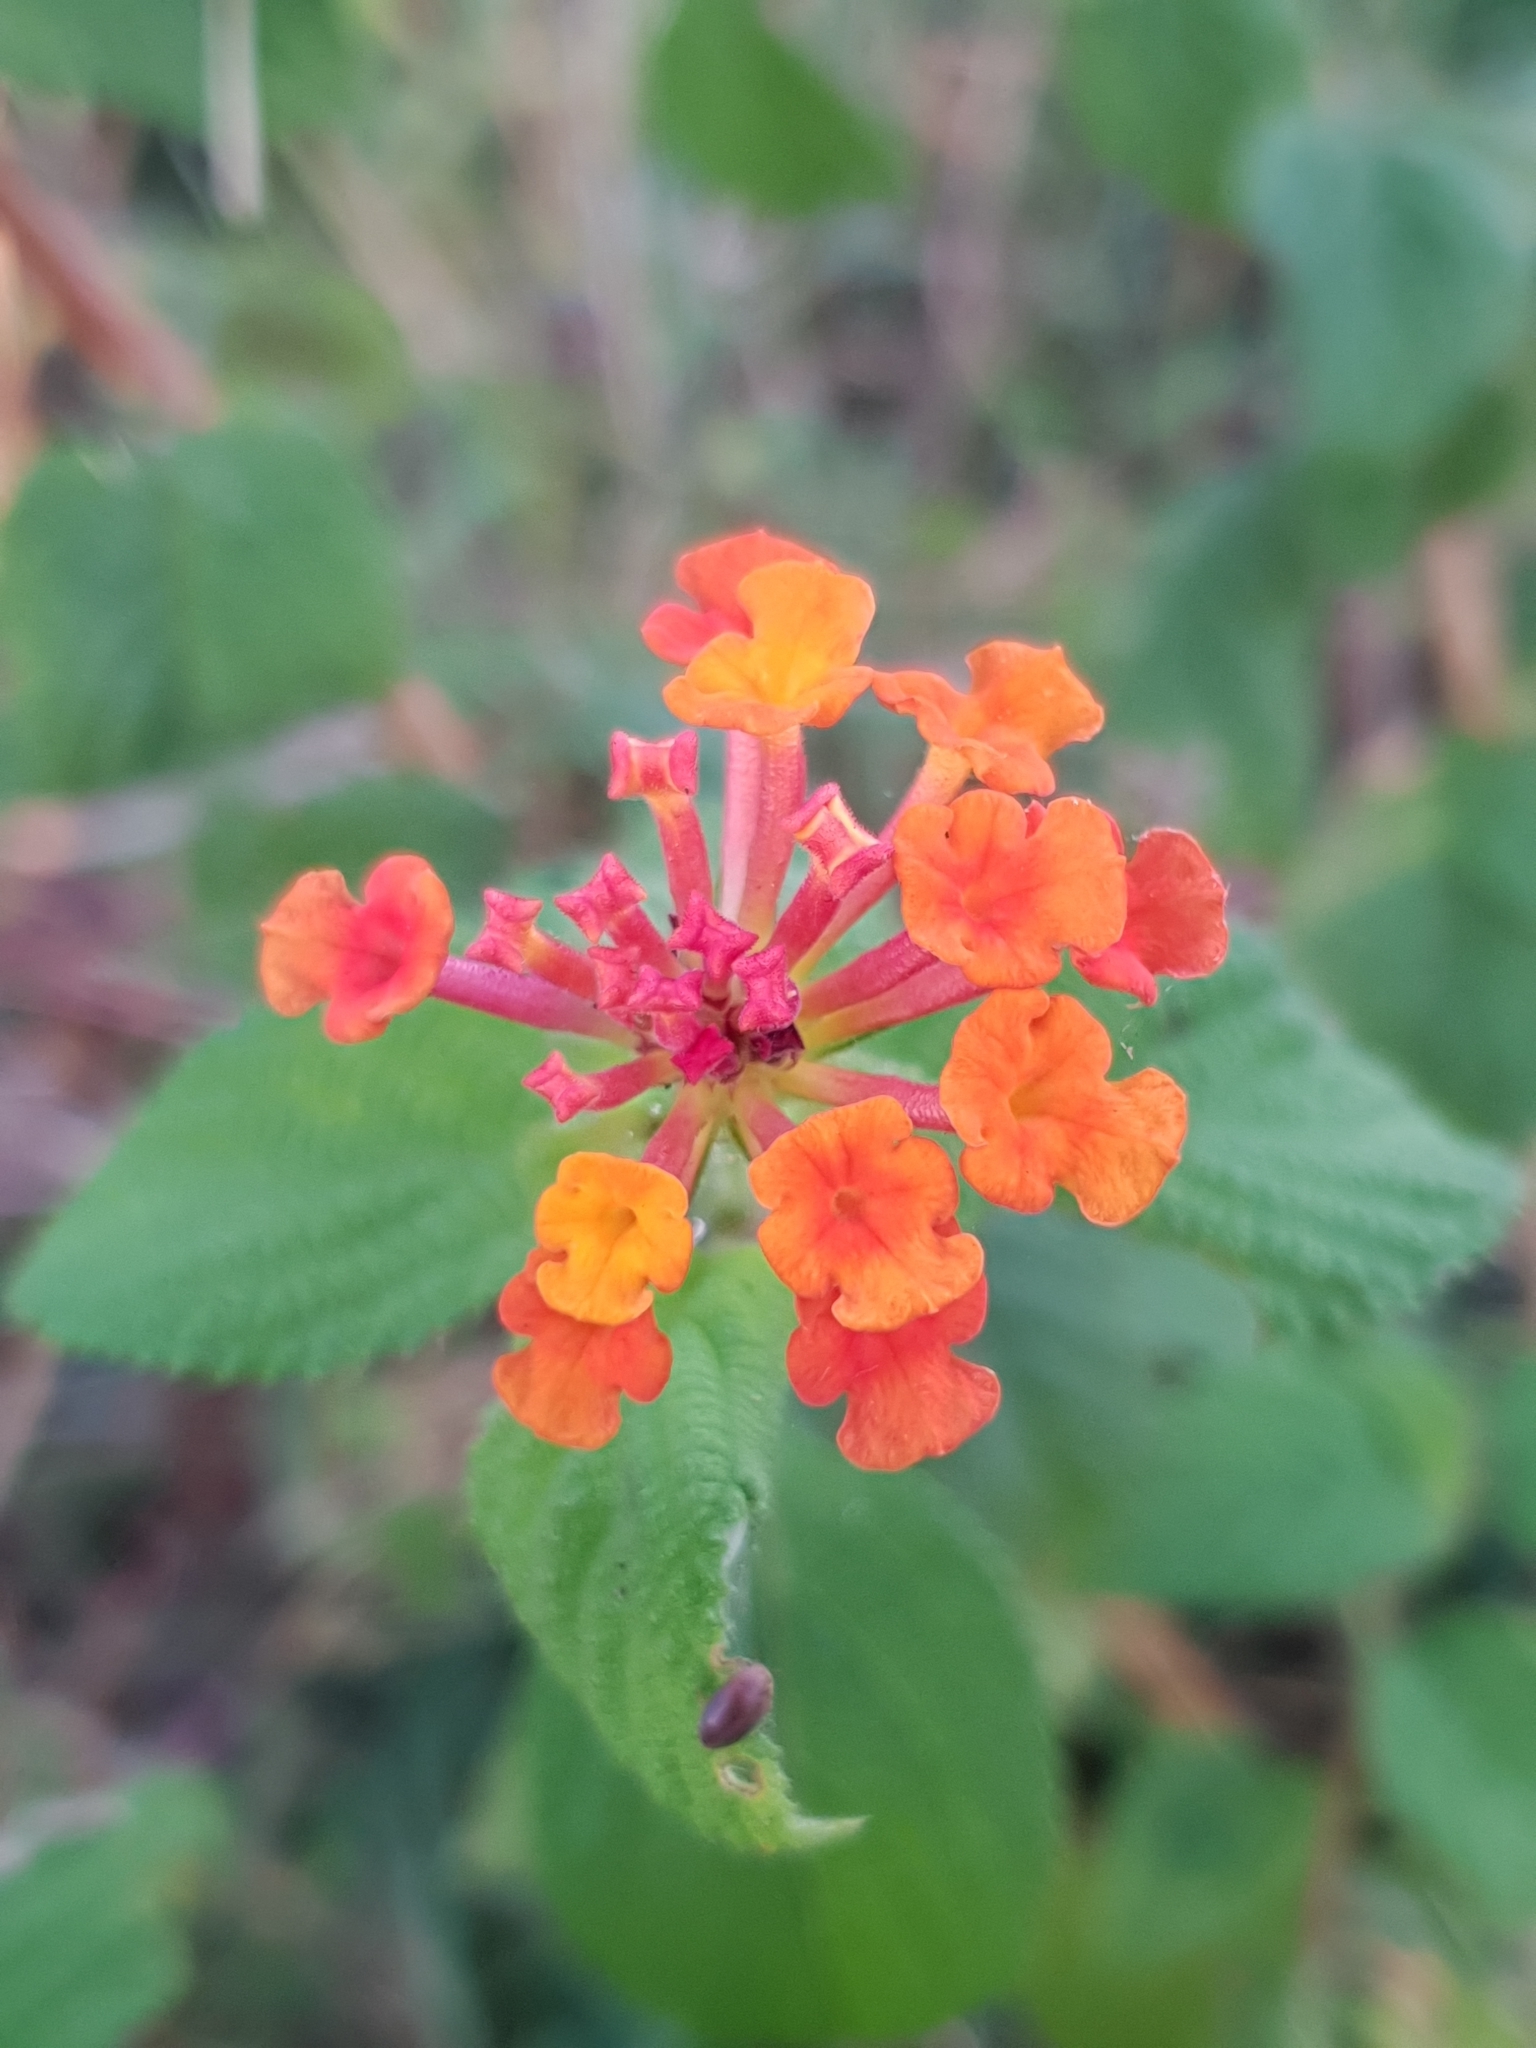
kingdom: Plantae
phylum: Tracheophyta
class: Magnoliopsida
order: Lamiales
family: Verbenaceae
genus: Lantana
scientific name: Lantana camara
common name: Lantana
